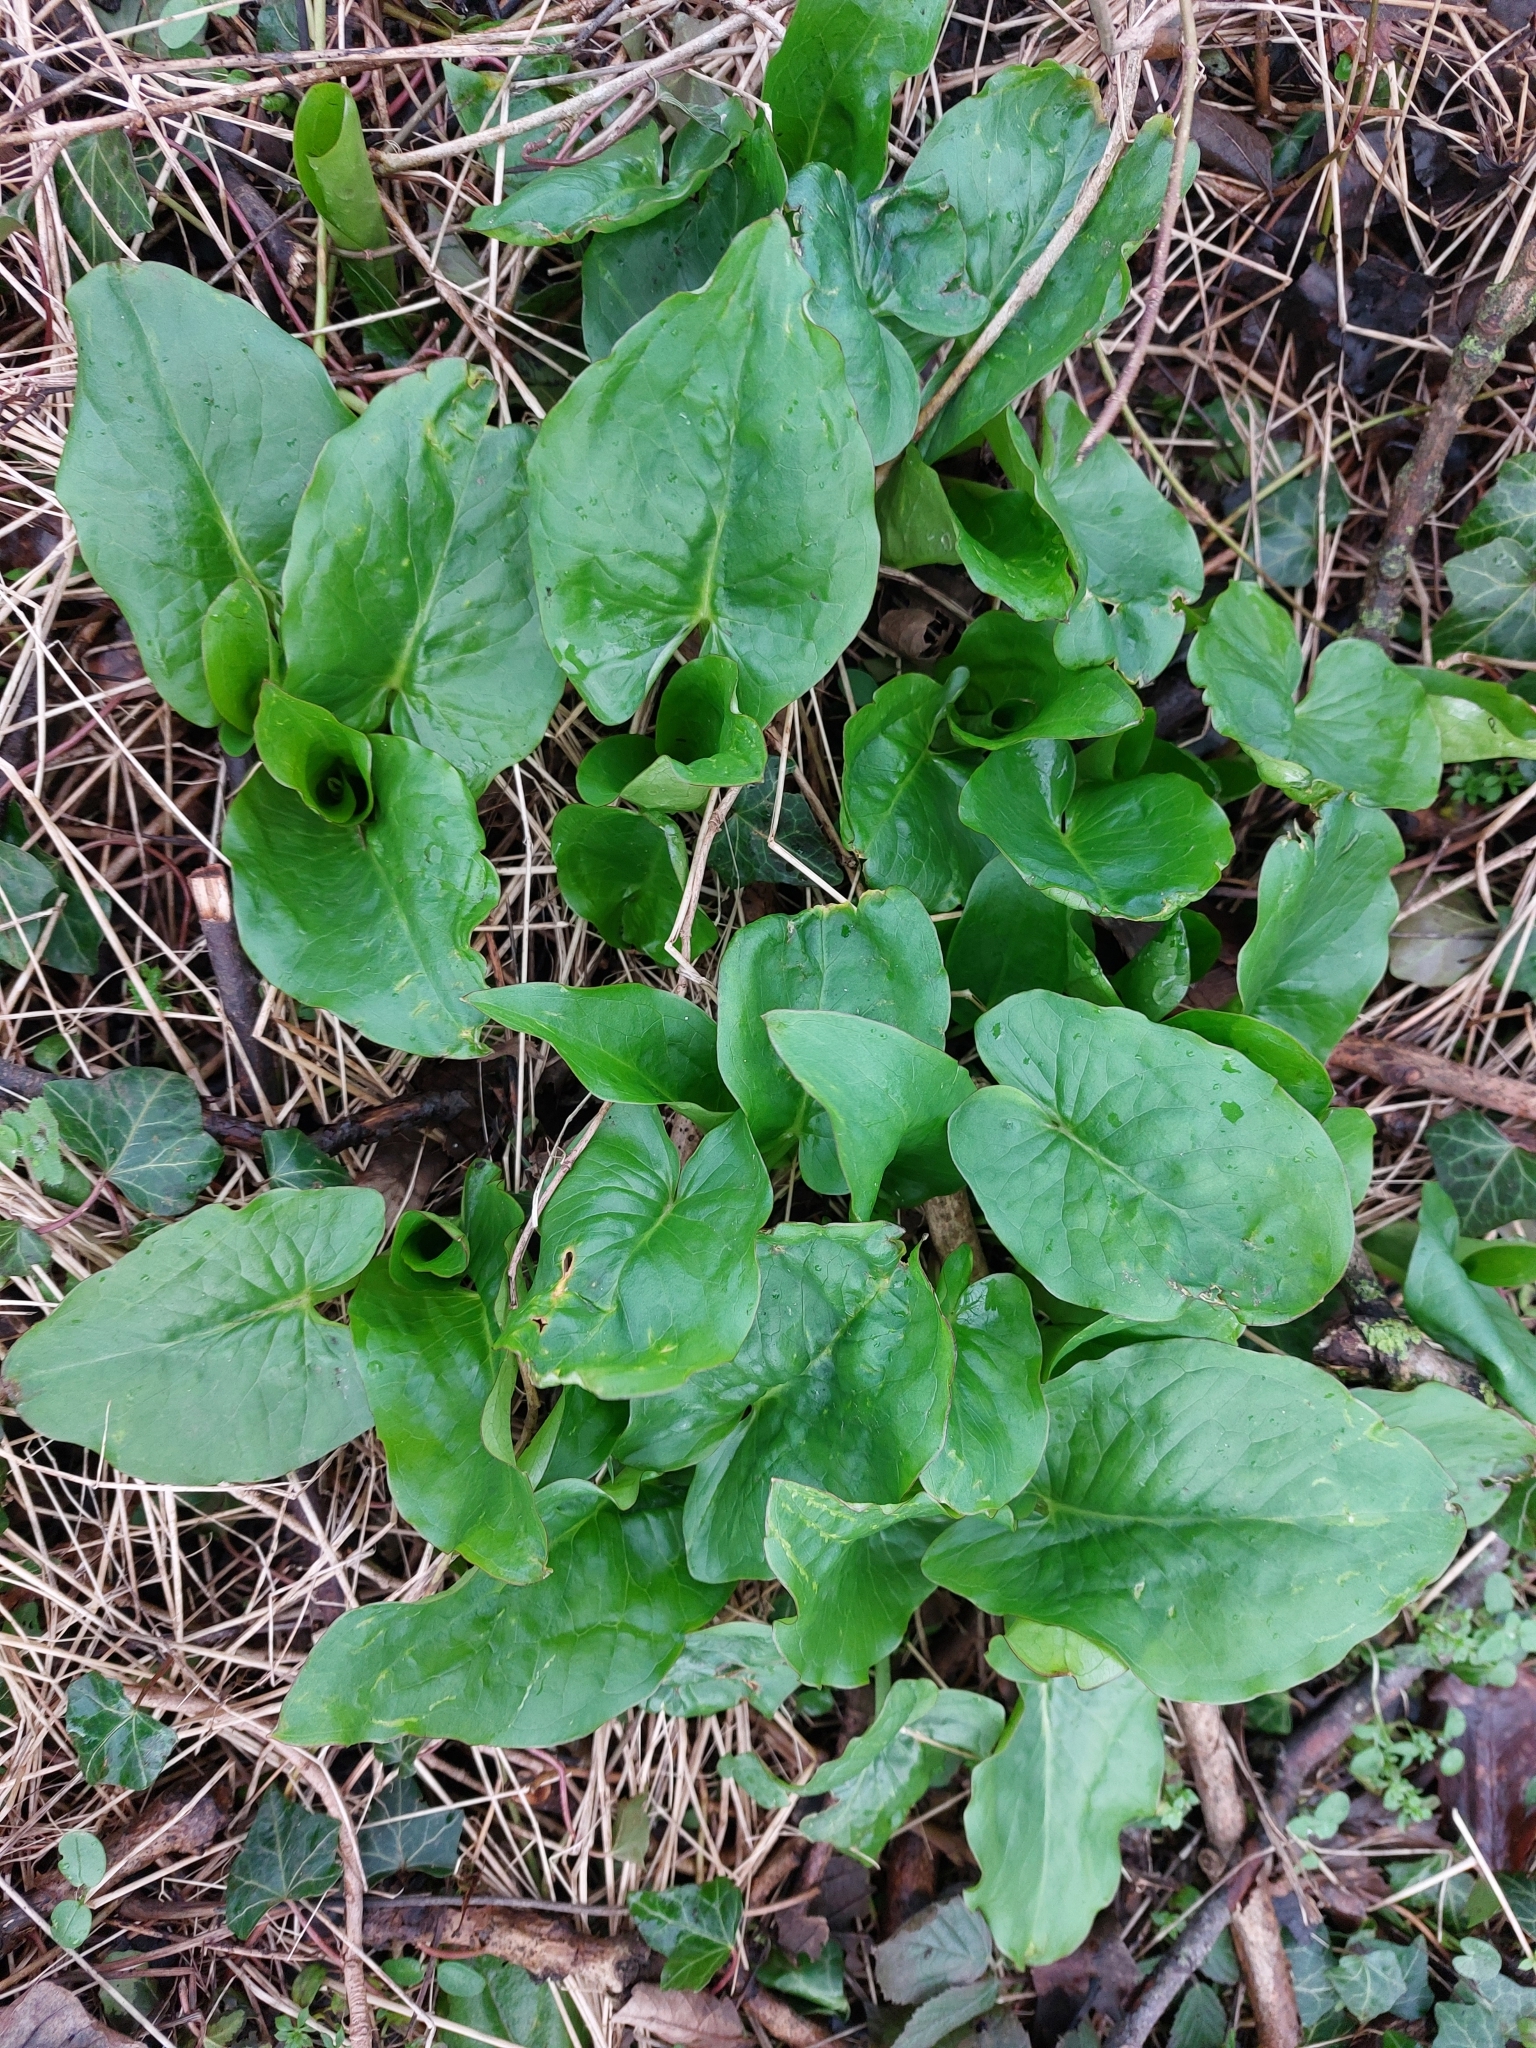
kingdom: Plantae
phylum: Tracheophyta
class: Liliopsida
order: Alismatales
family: Araceae
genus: Arum
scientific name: Arum maculatum
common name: Lords-and-ladies
